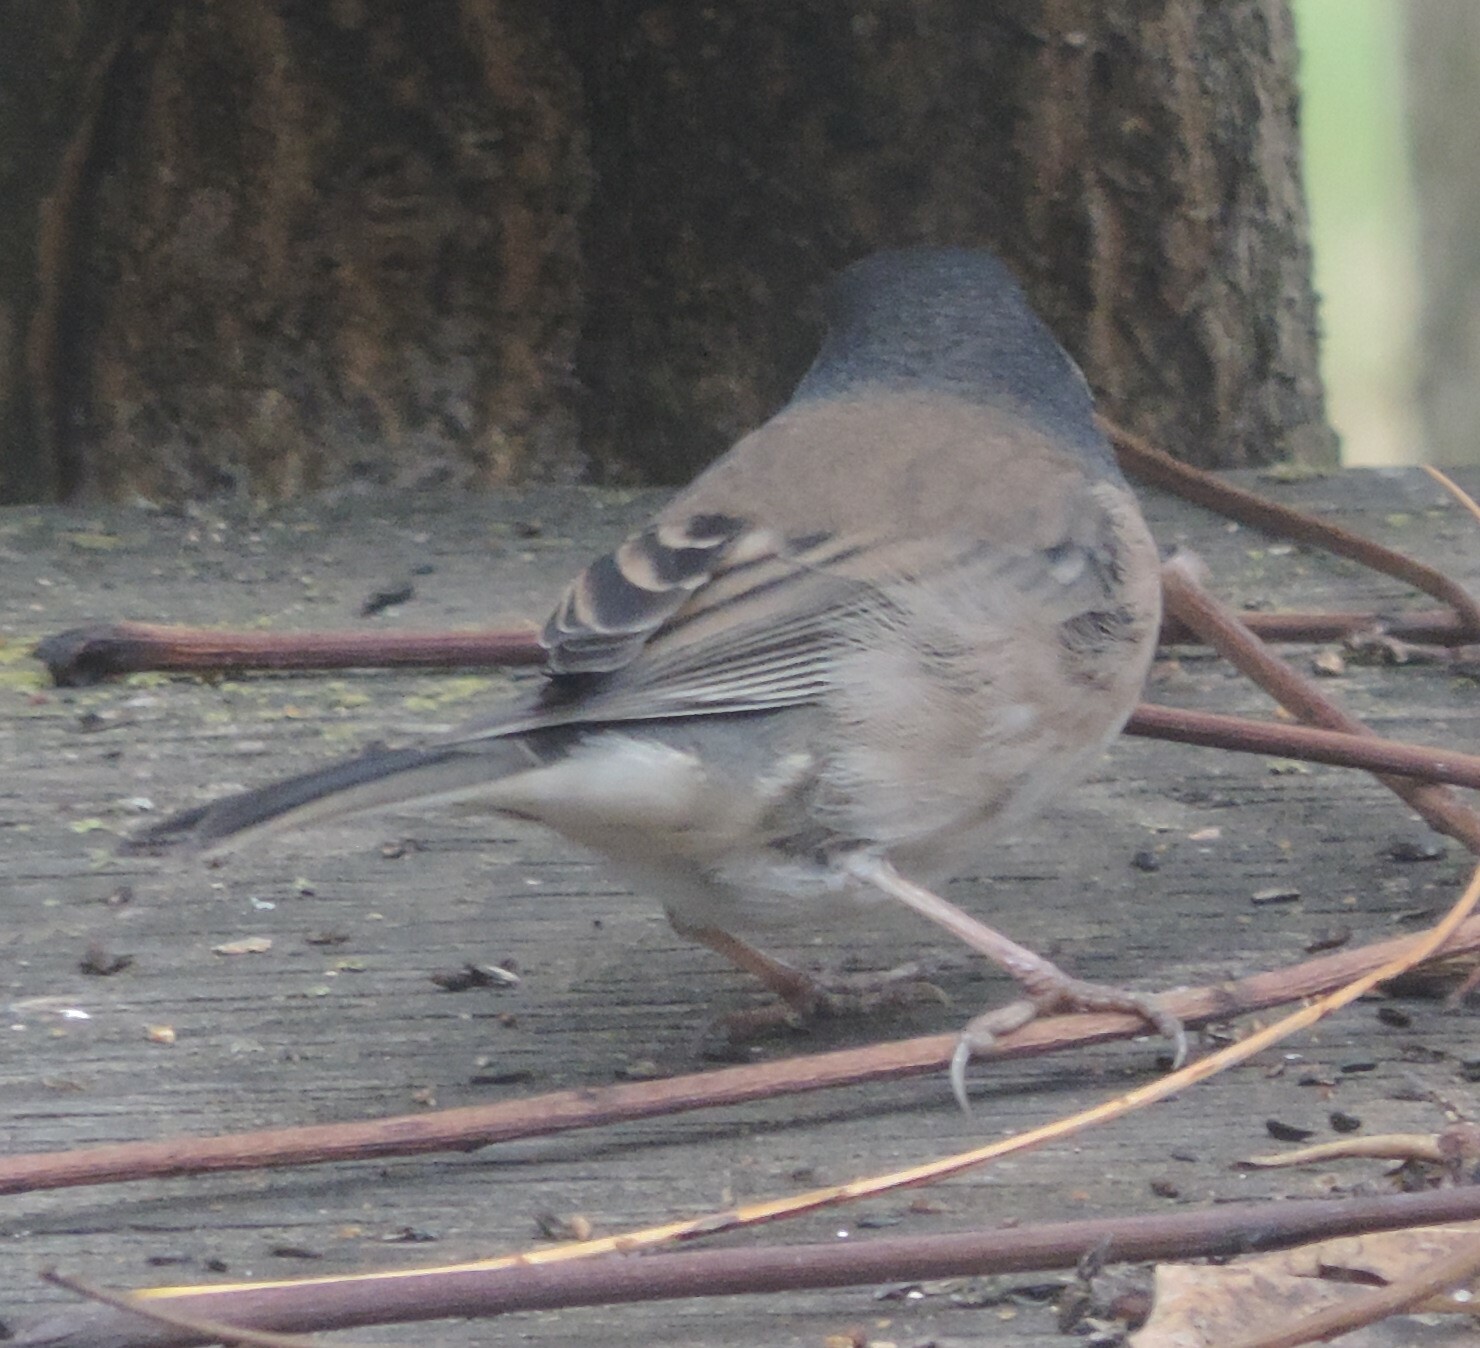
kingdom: Animalia
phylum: Chordata
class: Aves
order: Passeriformes
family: Passerellidae
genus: Junco
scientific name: Junco hyemalis
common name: Dark-eyed junco
